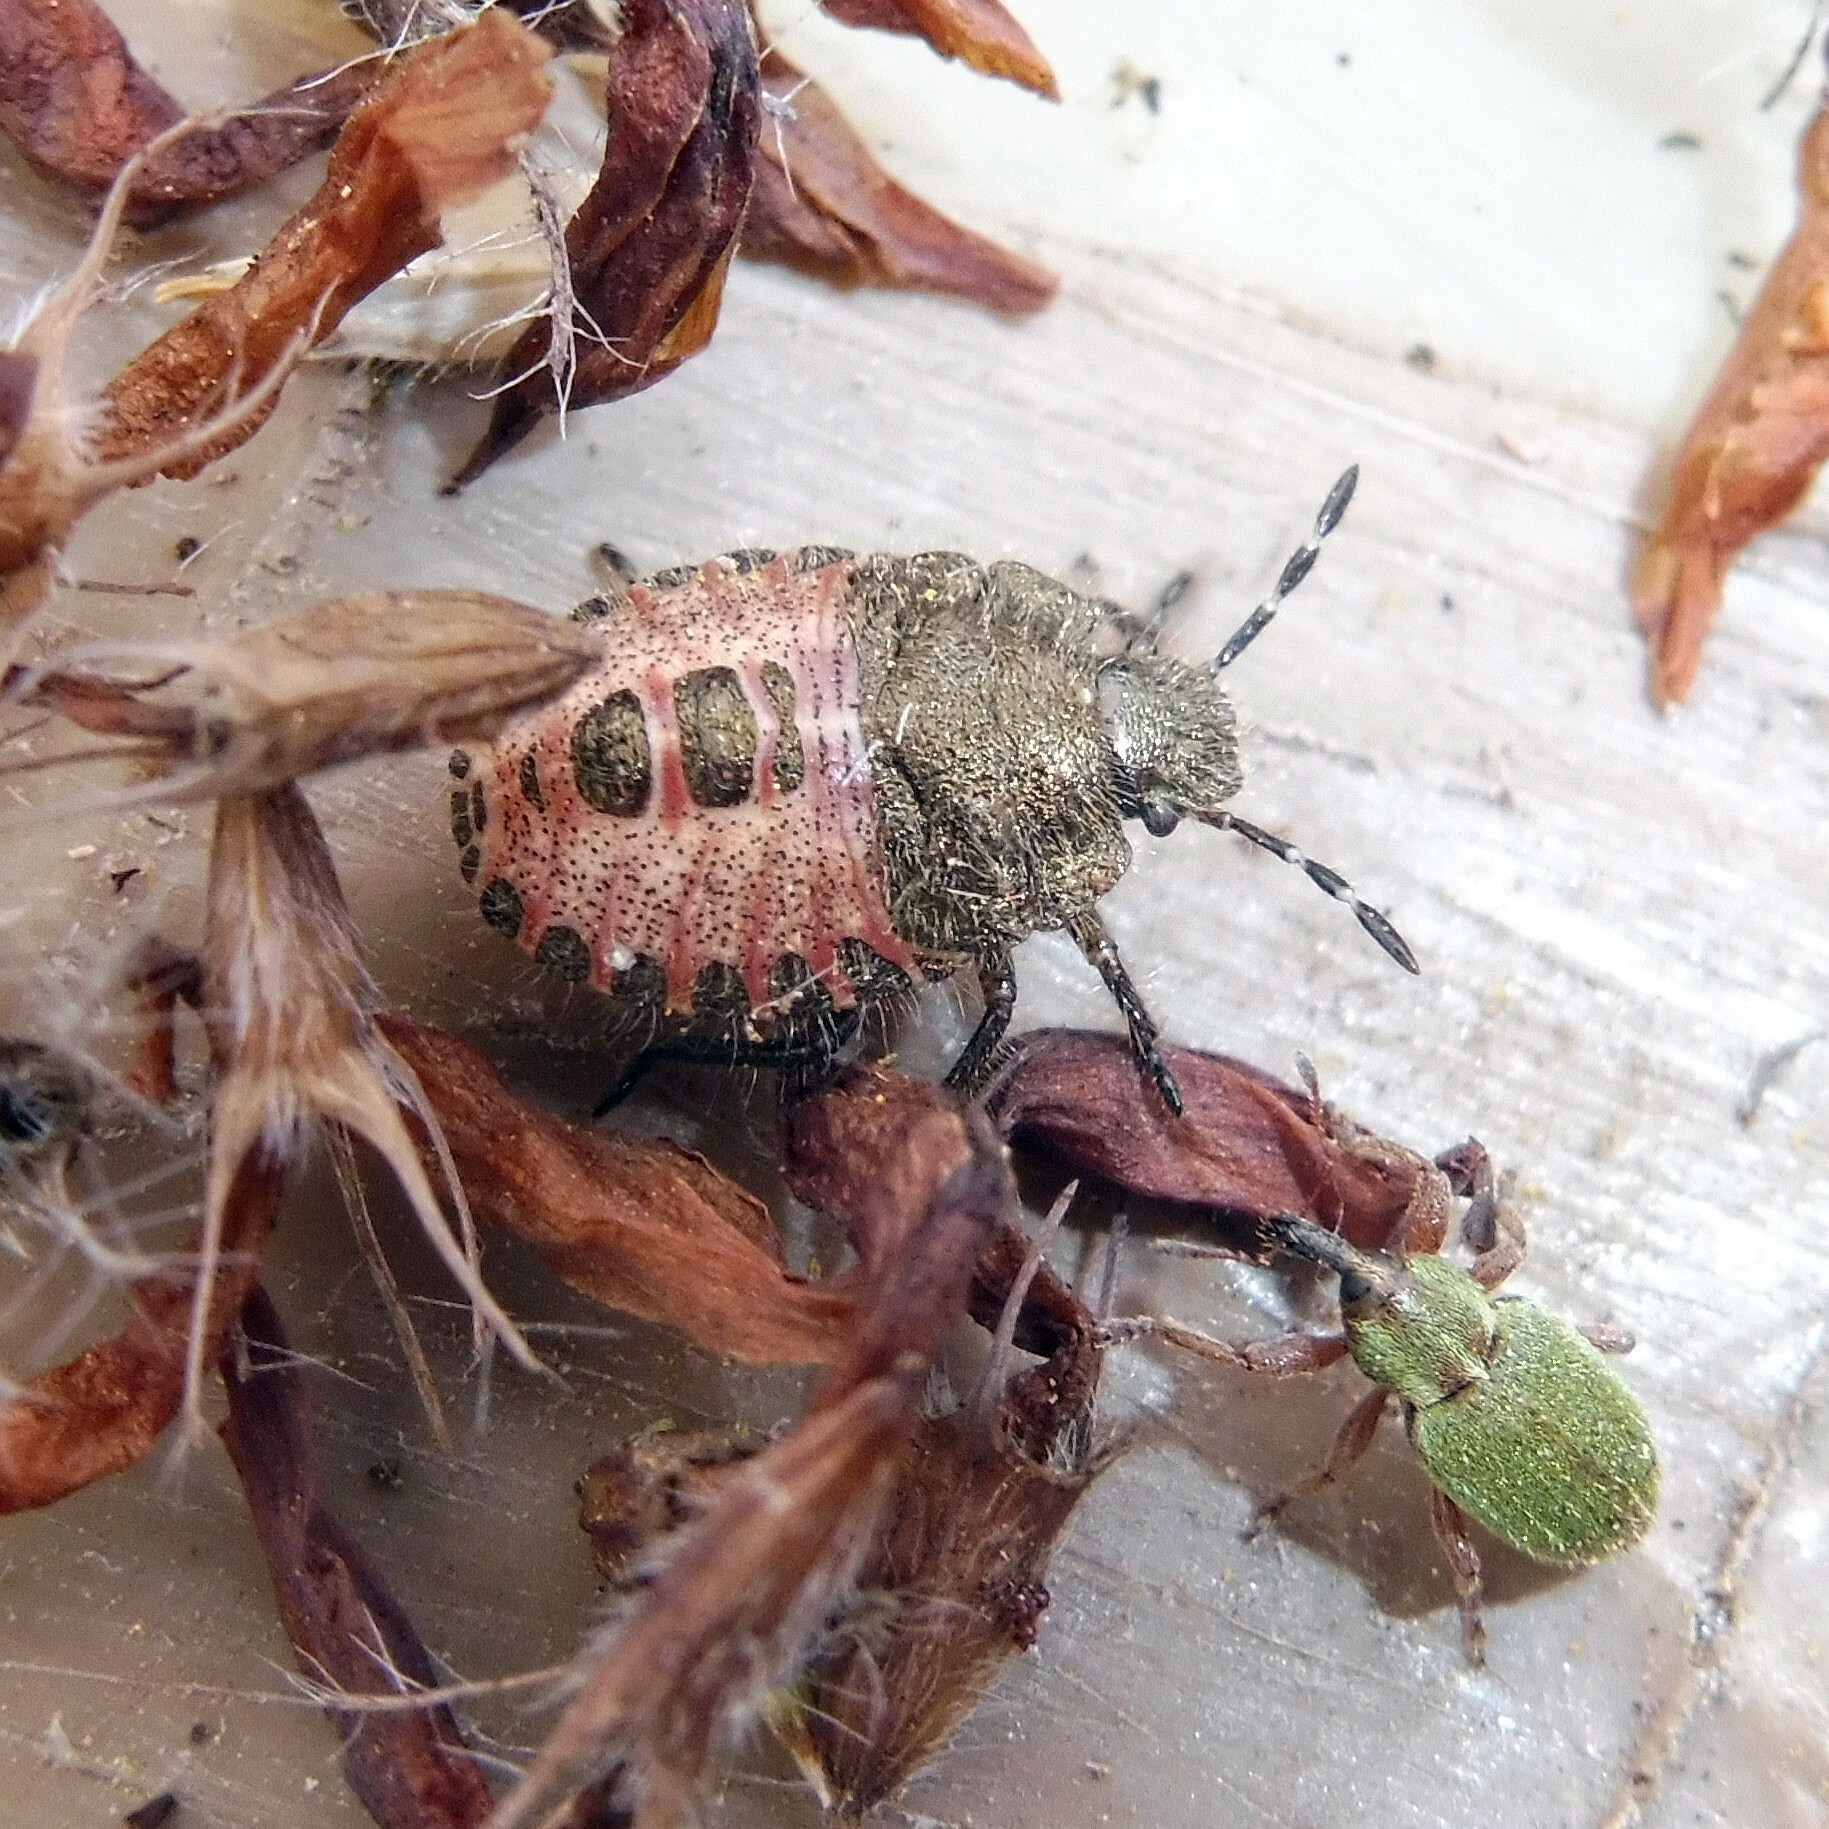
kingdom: Animalia
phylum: Arthropoda
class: Insecta
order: Hemiptera
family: Pentatomidae
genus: Dolycoris
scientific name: Dolycoris baccarum
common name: Sloe bug
